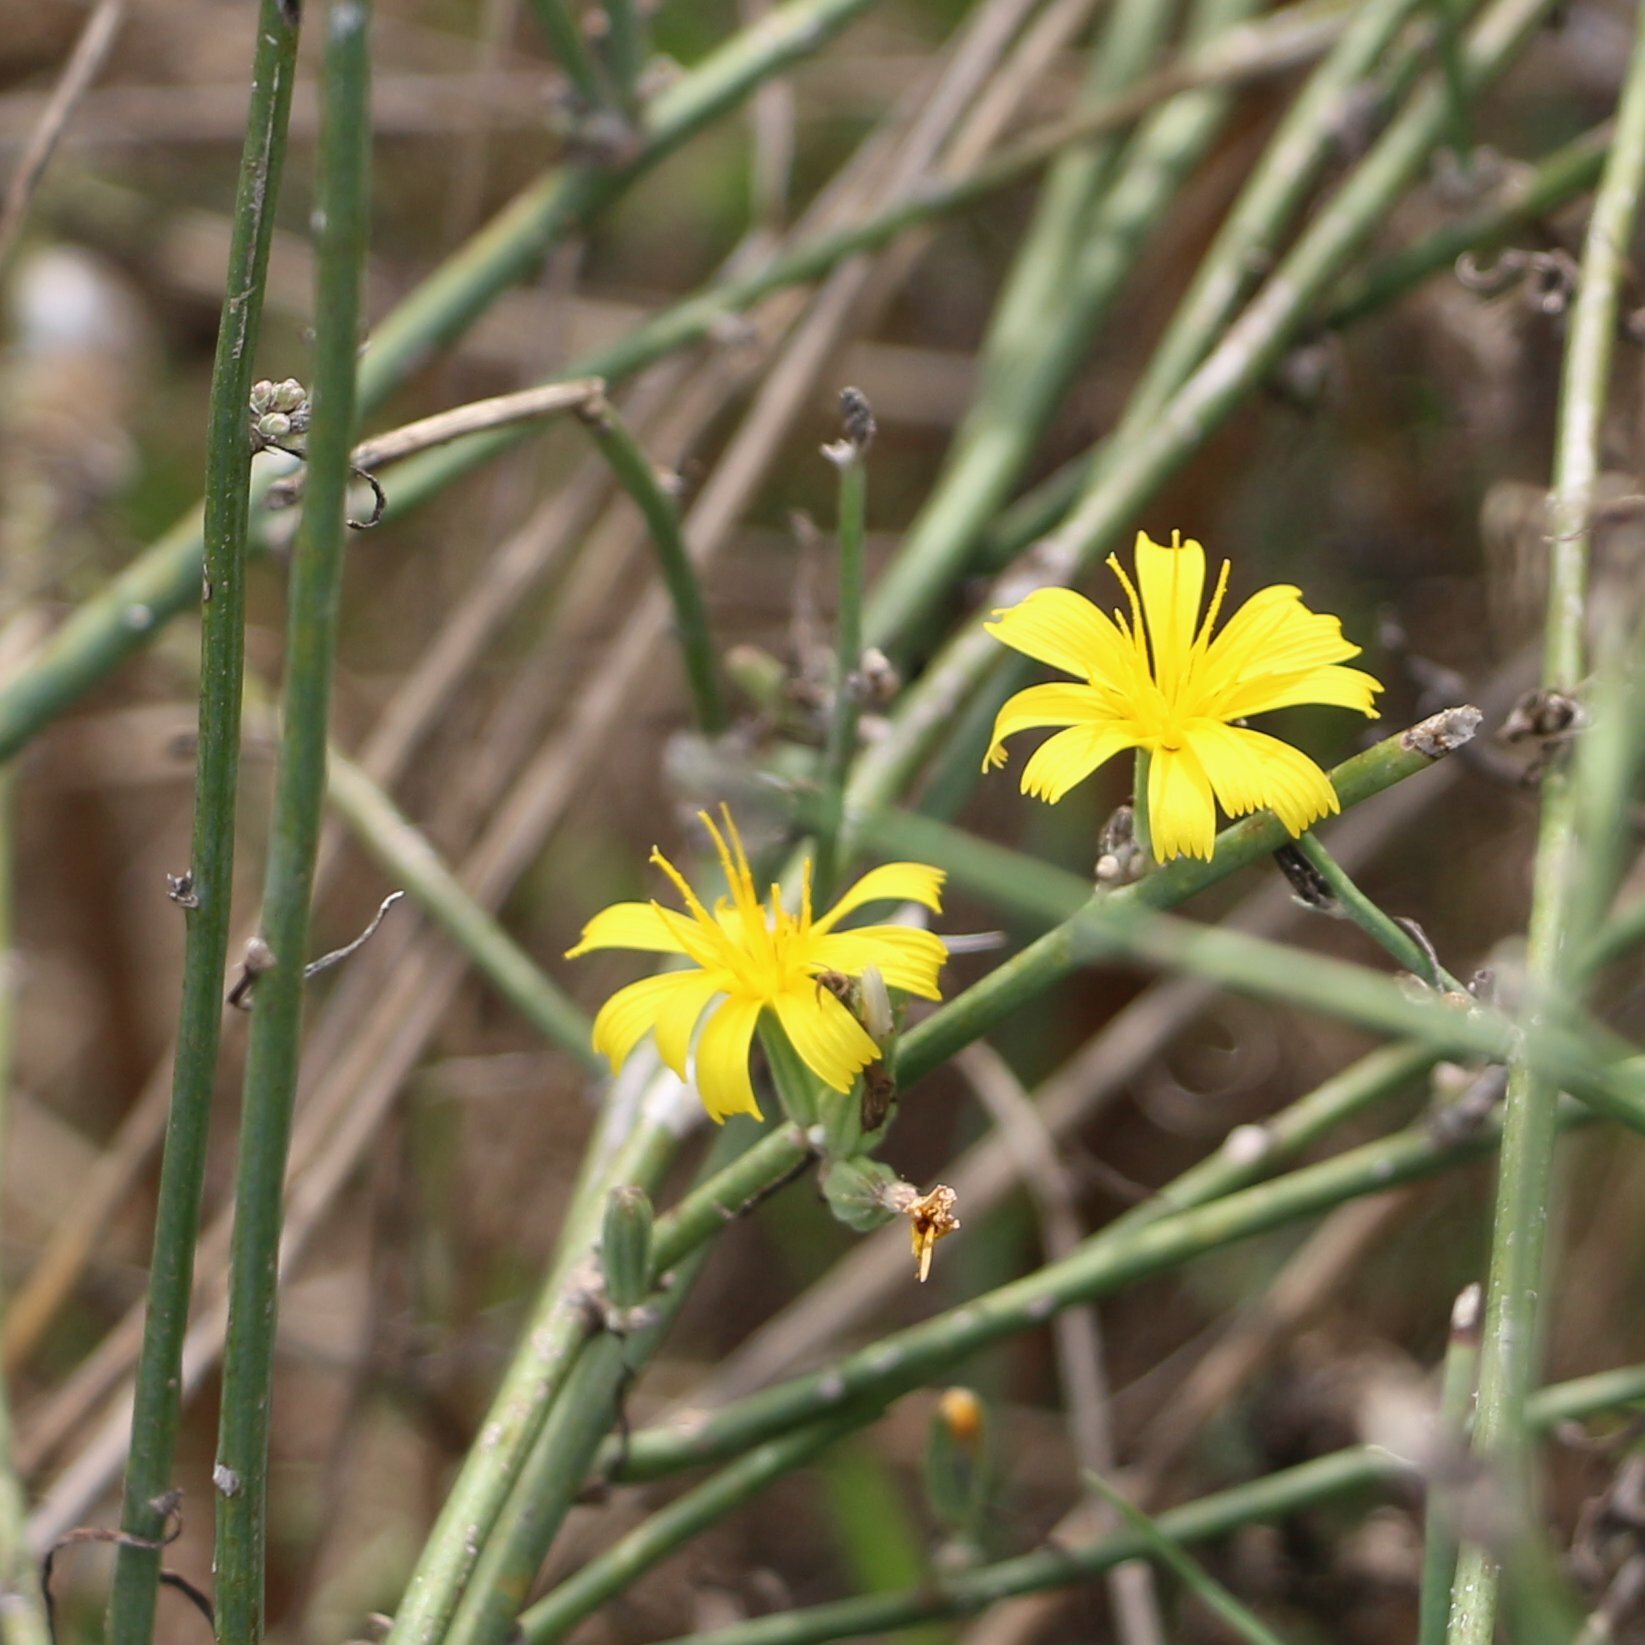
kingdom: Plantae
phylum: Tracheophyta
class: Magnoliopsida
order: Asterales
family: Asteraceae
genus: Chondrilla
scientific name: Chondrilla juncea
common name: Skeleton weed
